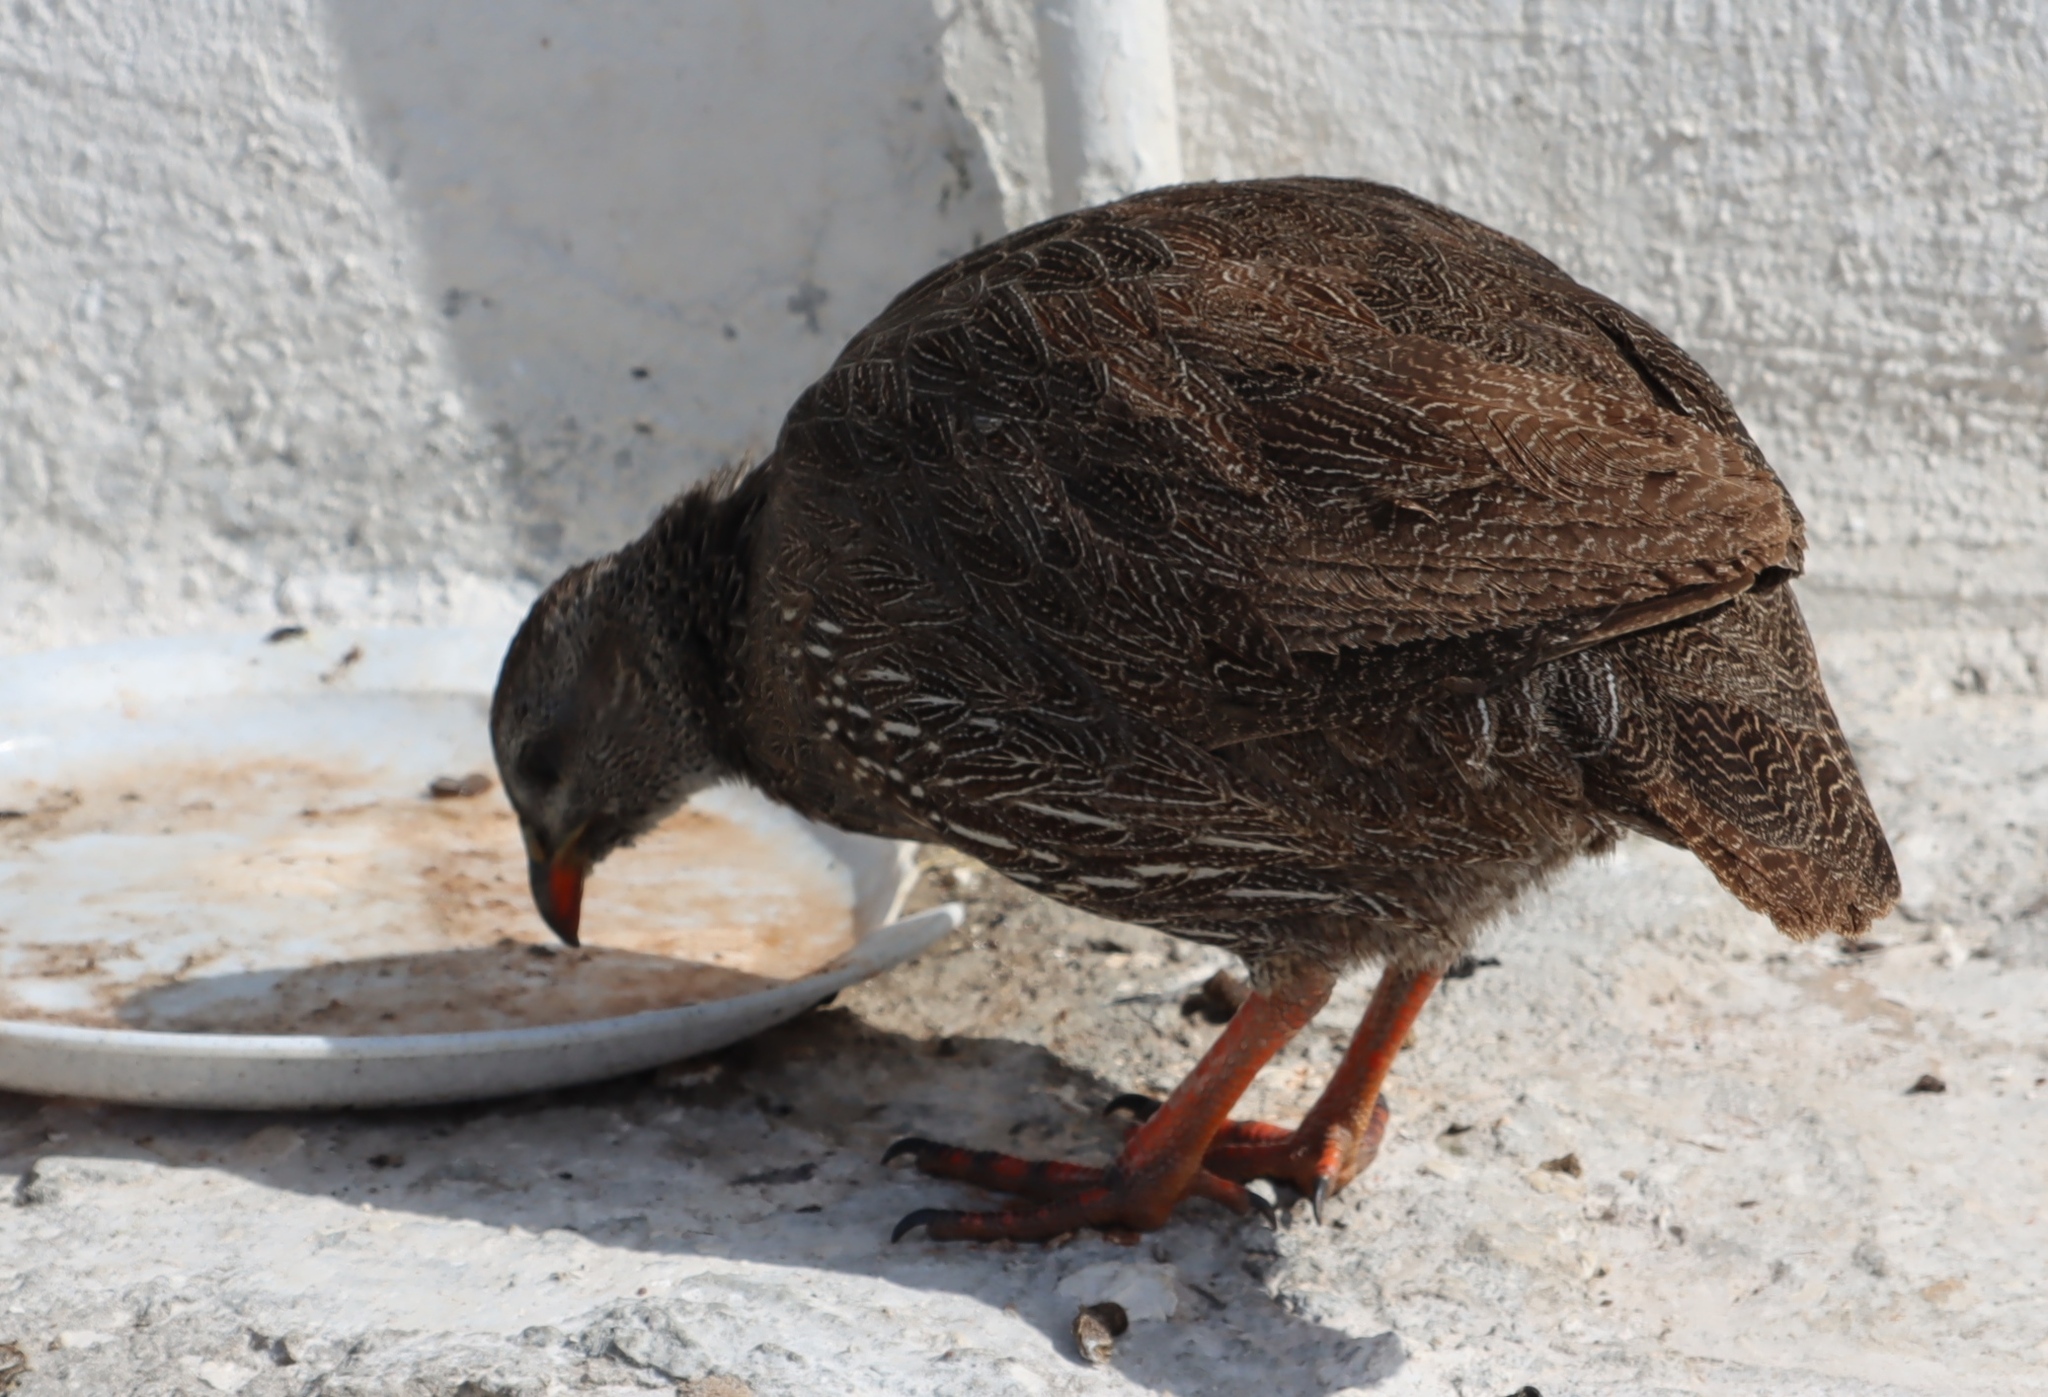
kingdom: Animalia
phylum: Chordata
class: Aves
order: Galliformes
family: Phasianidae
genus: Pternistis
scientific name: Pternistis capensis
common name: Cape spurfowl
